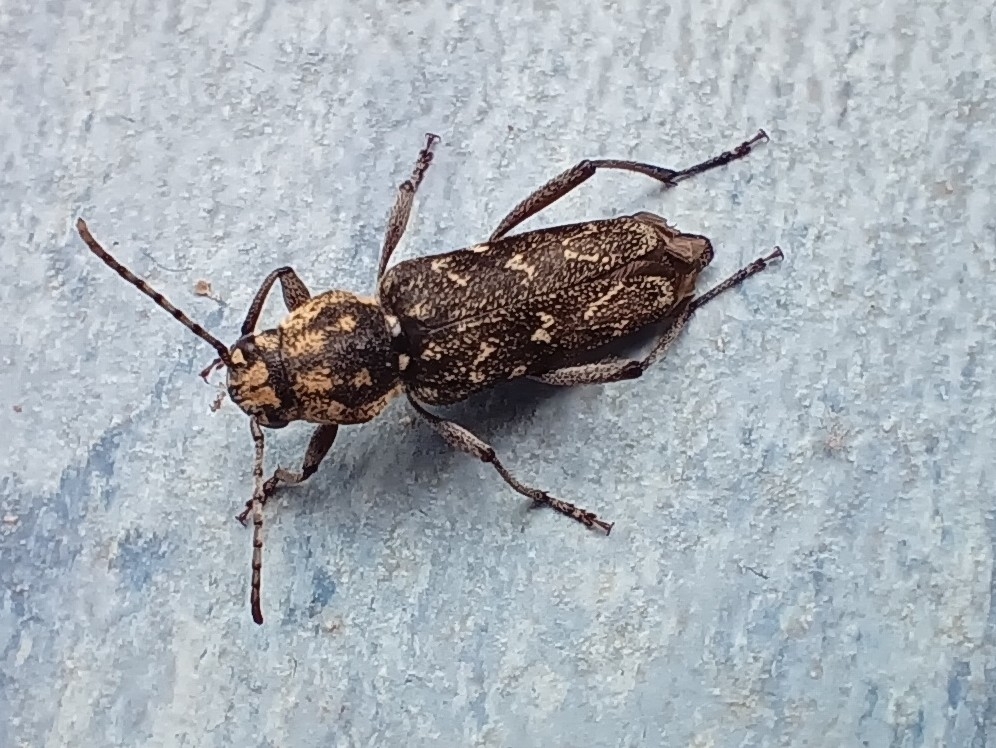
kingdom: Animalia
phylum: Arthropoda
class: Insecta
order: Coleoptera
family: Cerambycidae
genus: Xylotrechus
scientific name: Xylotrechus rusticus
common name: Grey tiger long-horned beetle
